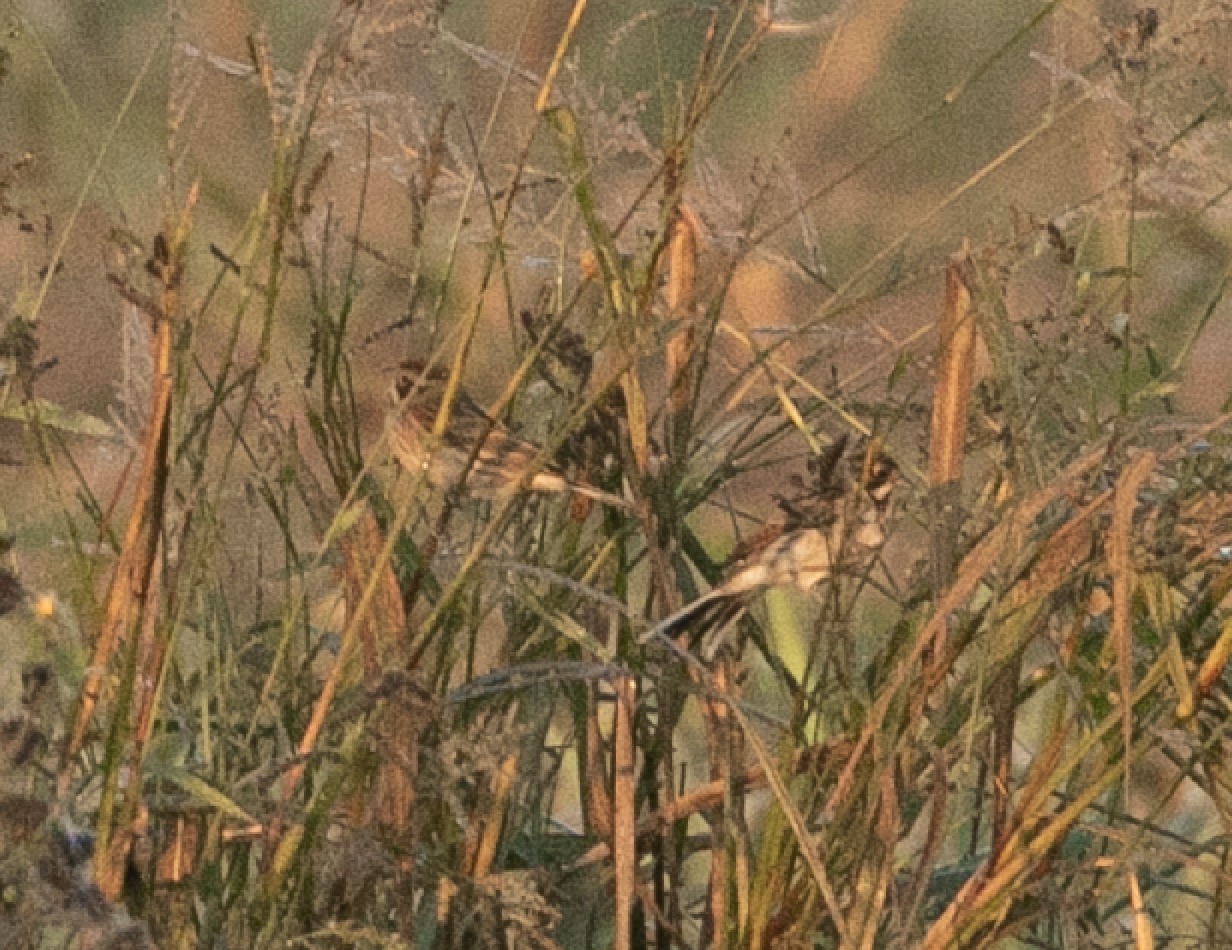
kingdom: Animalia
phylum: Chordata
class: Aves
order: Passeriformes
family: Emberizidae
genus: Emberiza
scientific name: Emberiza schoeniclus
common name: Reed bunting
